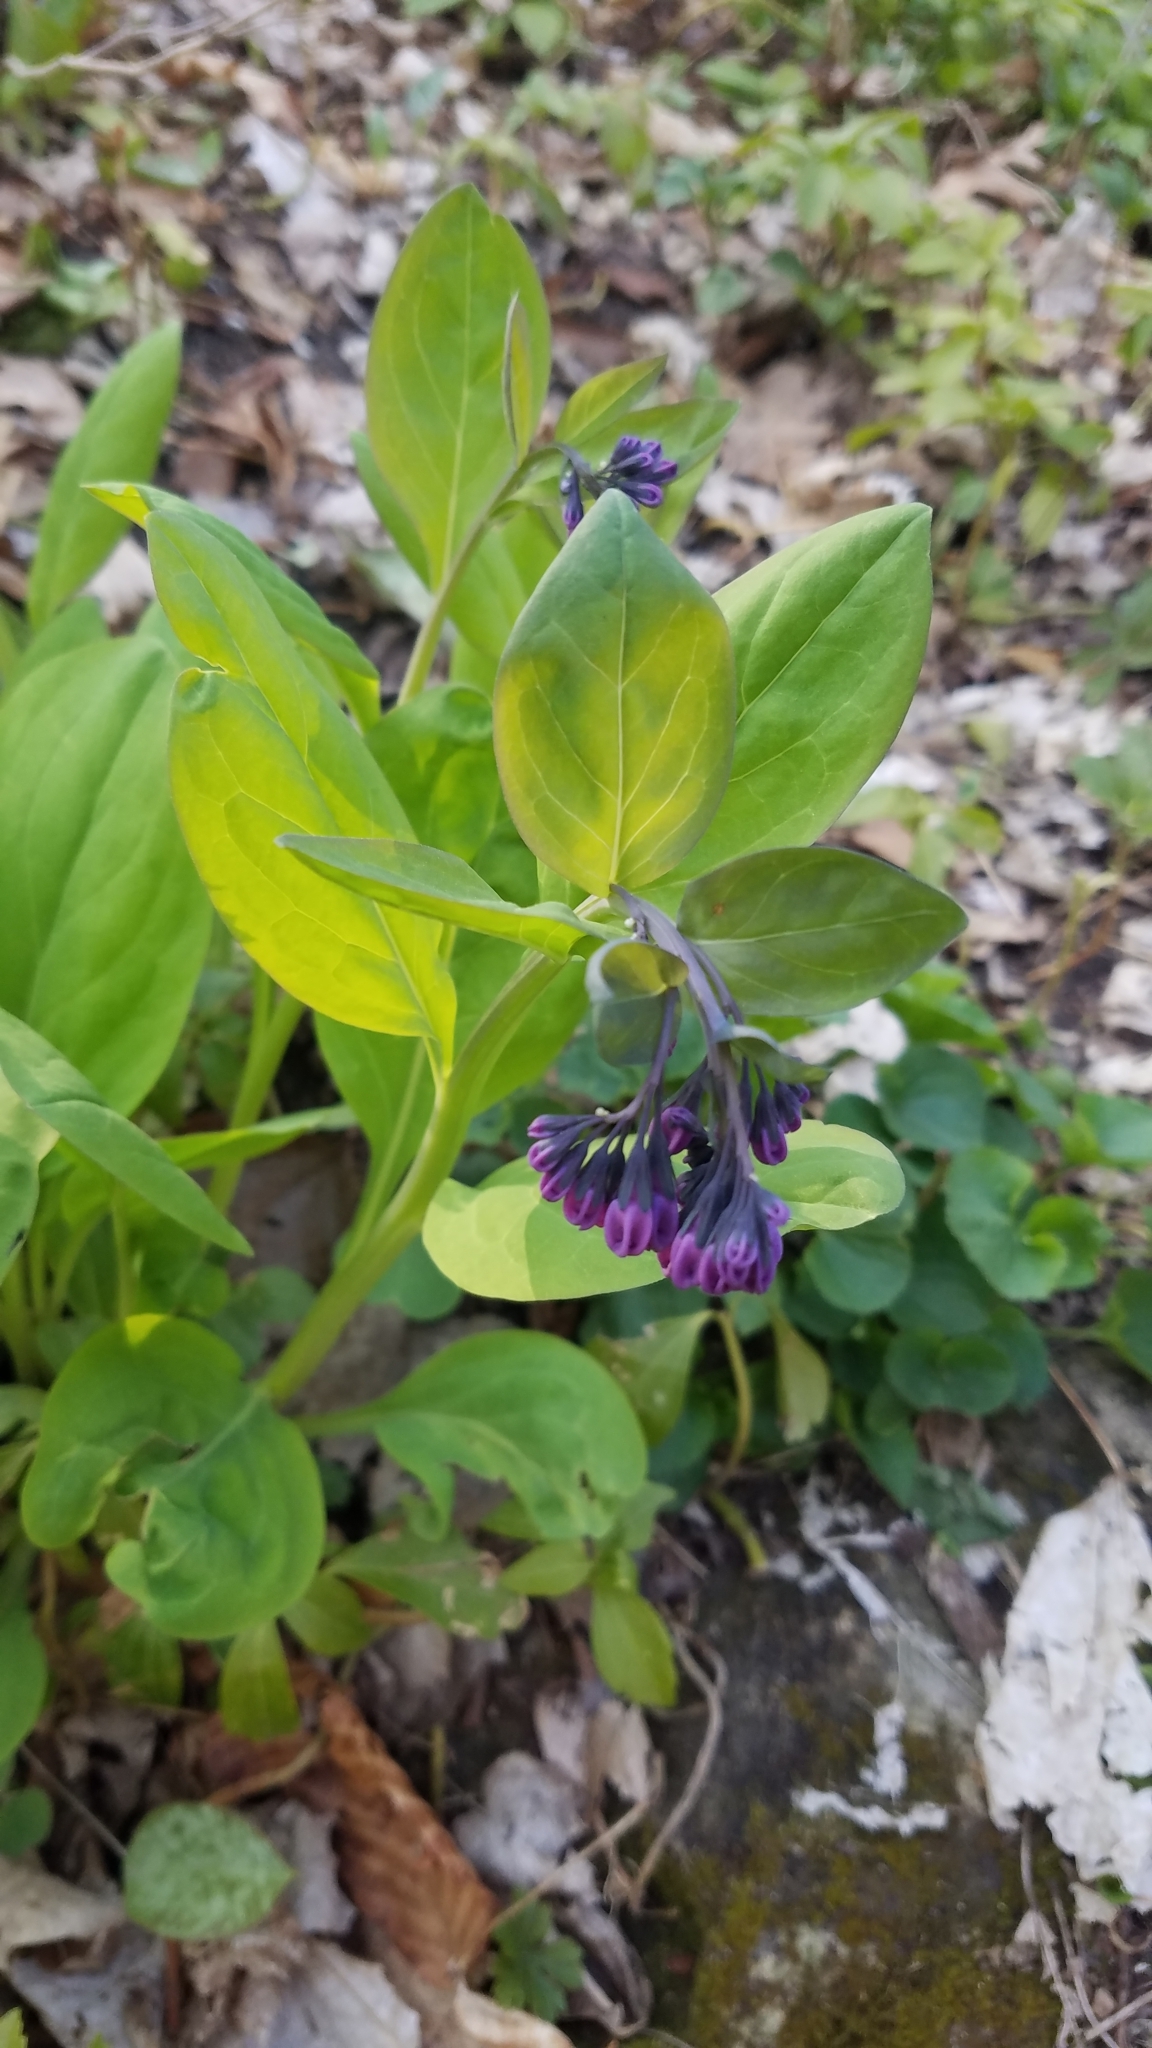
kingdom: Plantae
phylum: Tracheophyta
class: Magnoliopsida
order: Boraginales
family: Boraginaceae
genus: Mertensia
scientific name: Mertensia virginica
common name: Virginia bluebells
